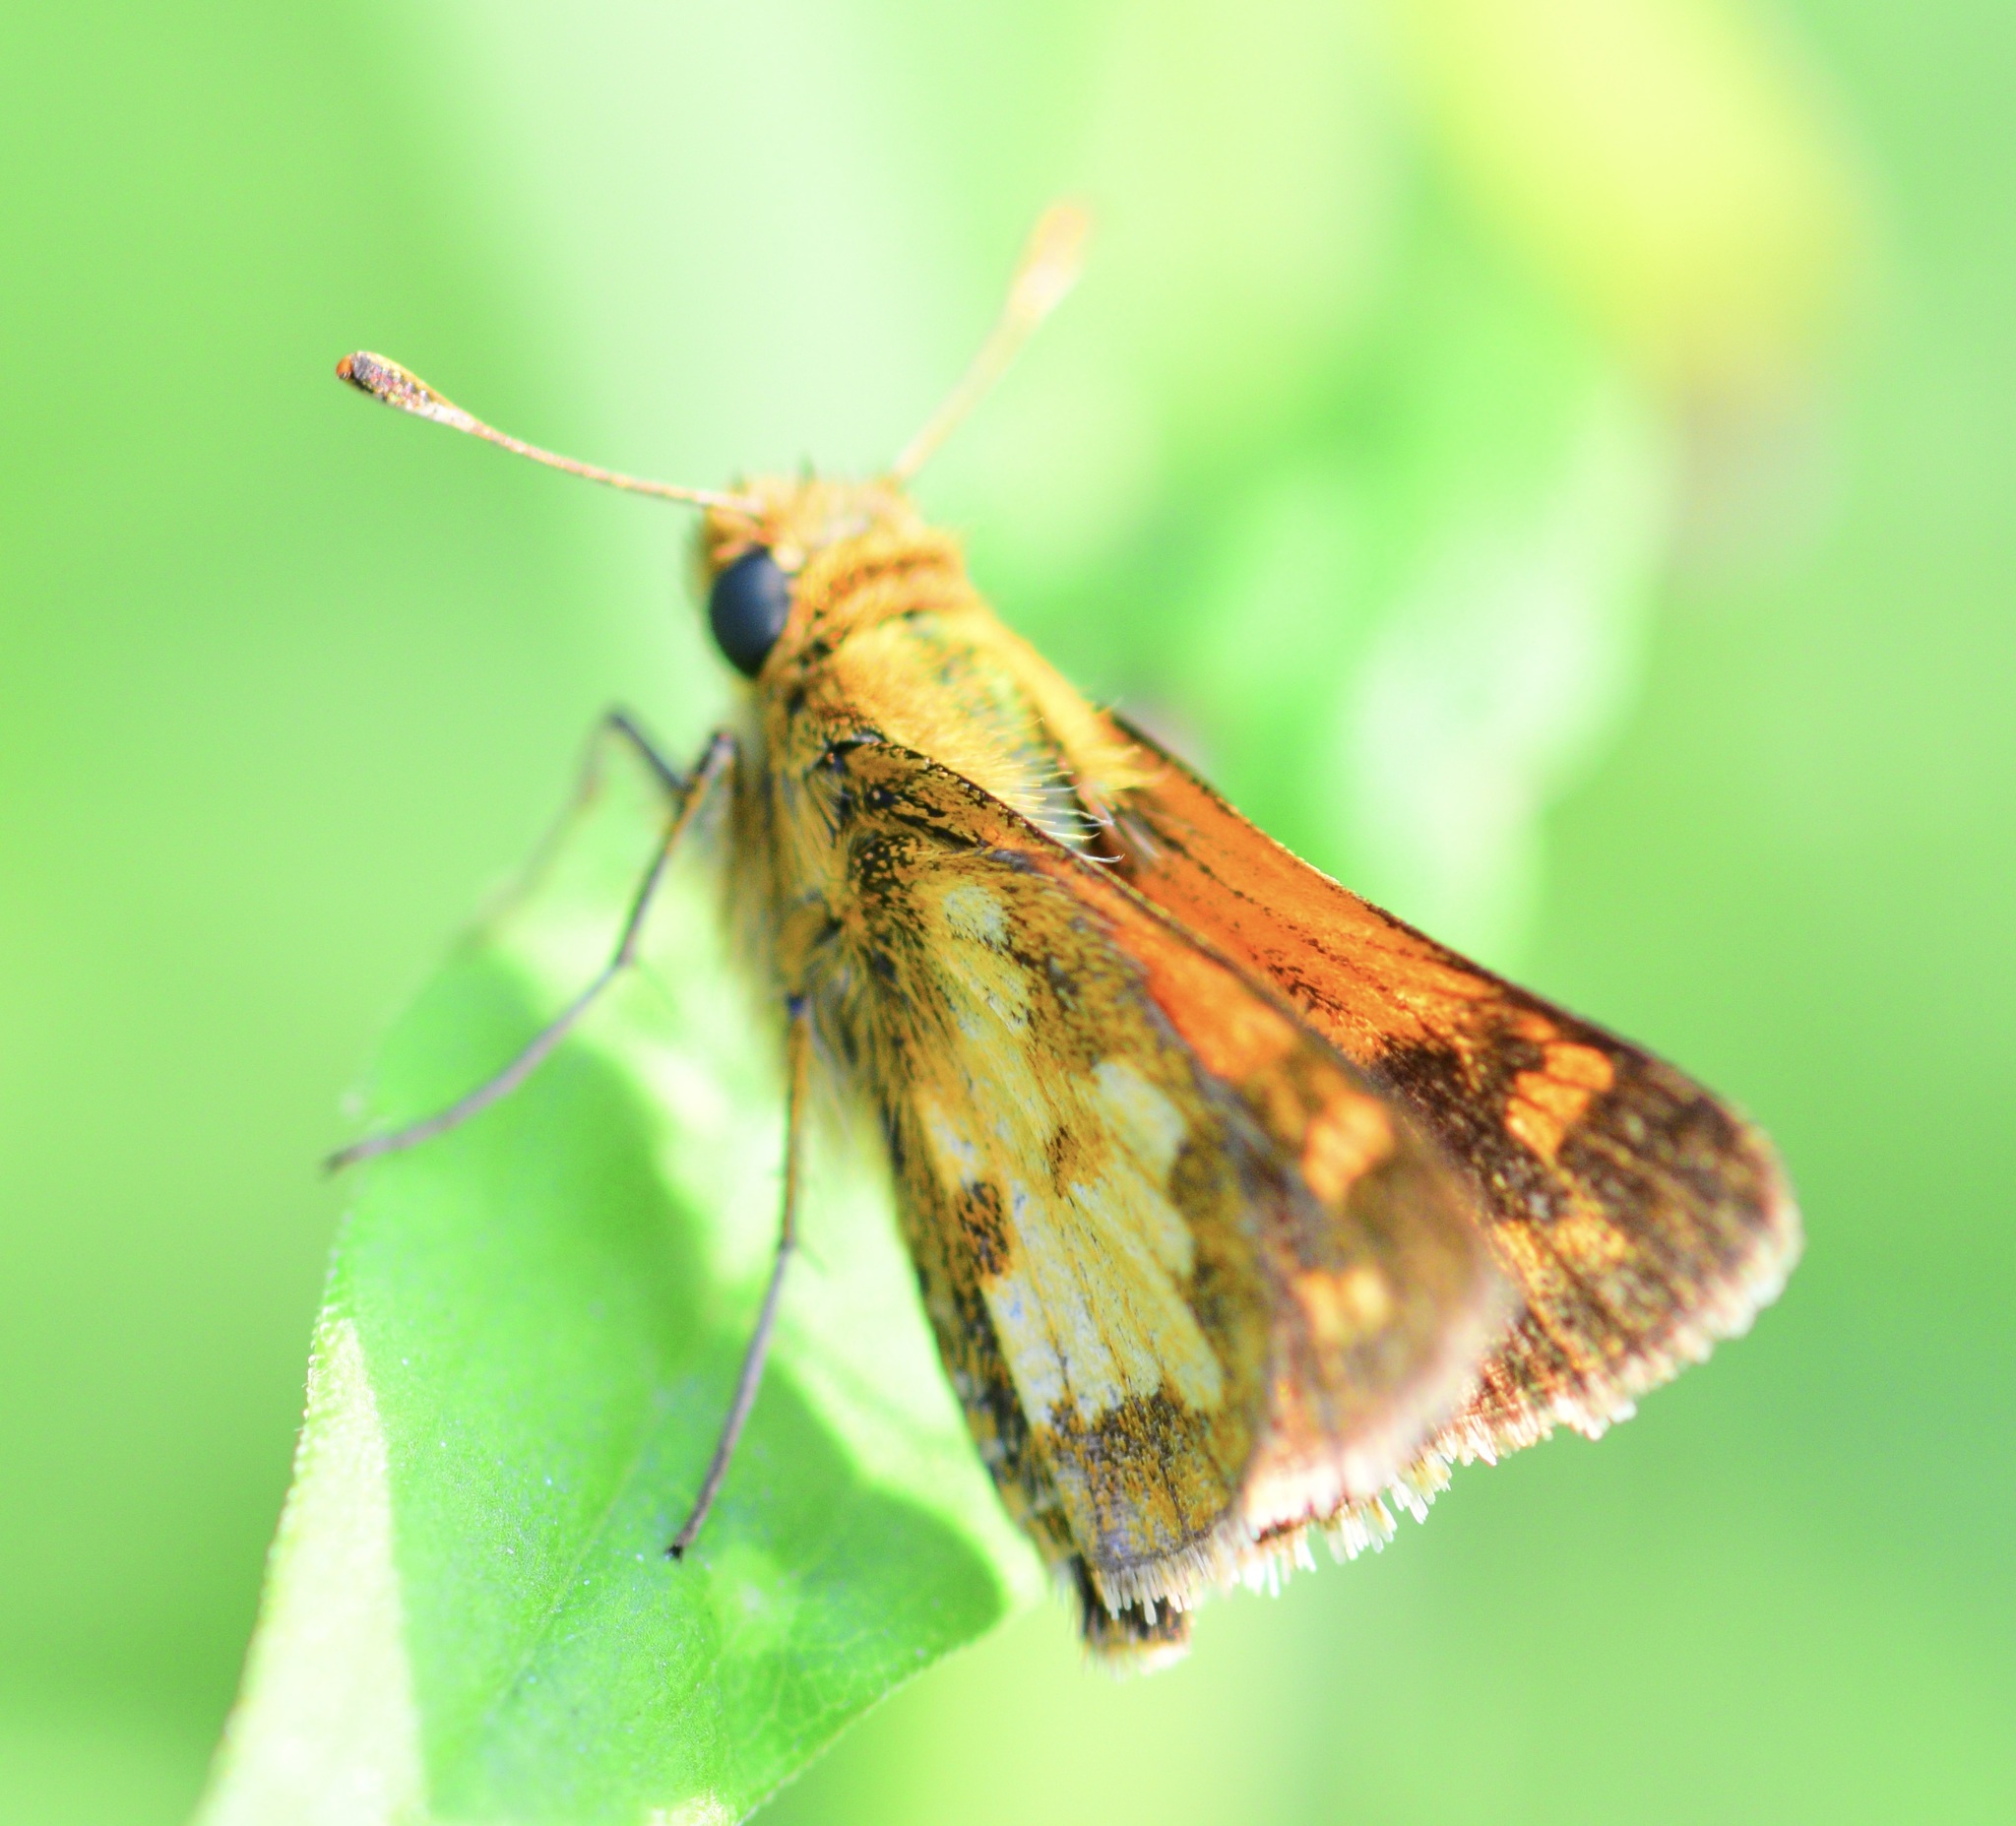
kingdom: Animalia
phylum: Arthropoda
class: Insecta
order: Lepidoptera
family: Hesperiidae
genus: Polites
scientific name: Polites coras
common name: Peck's skipper
